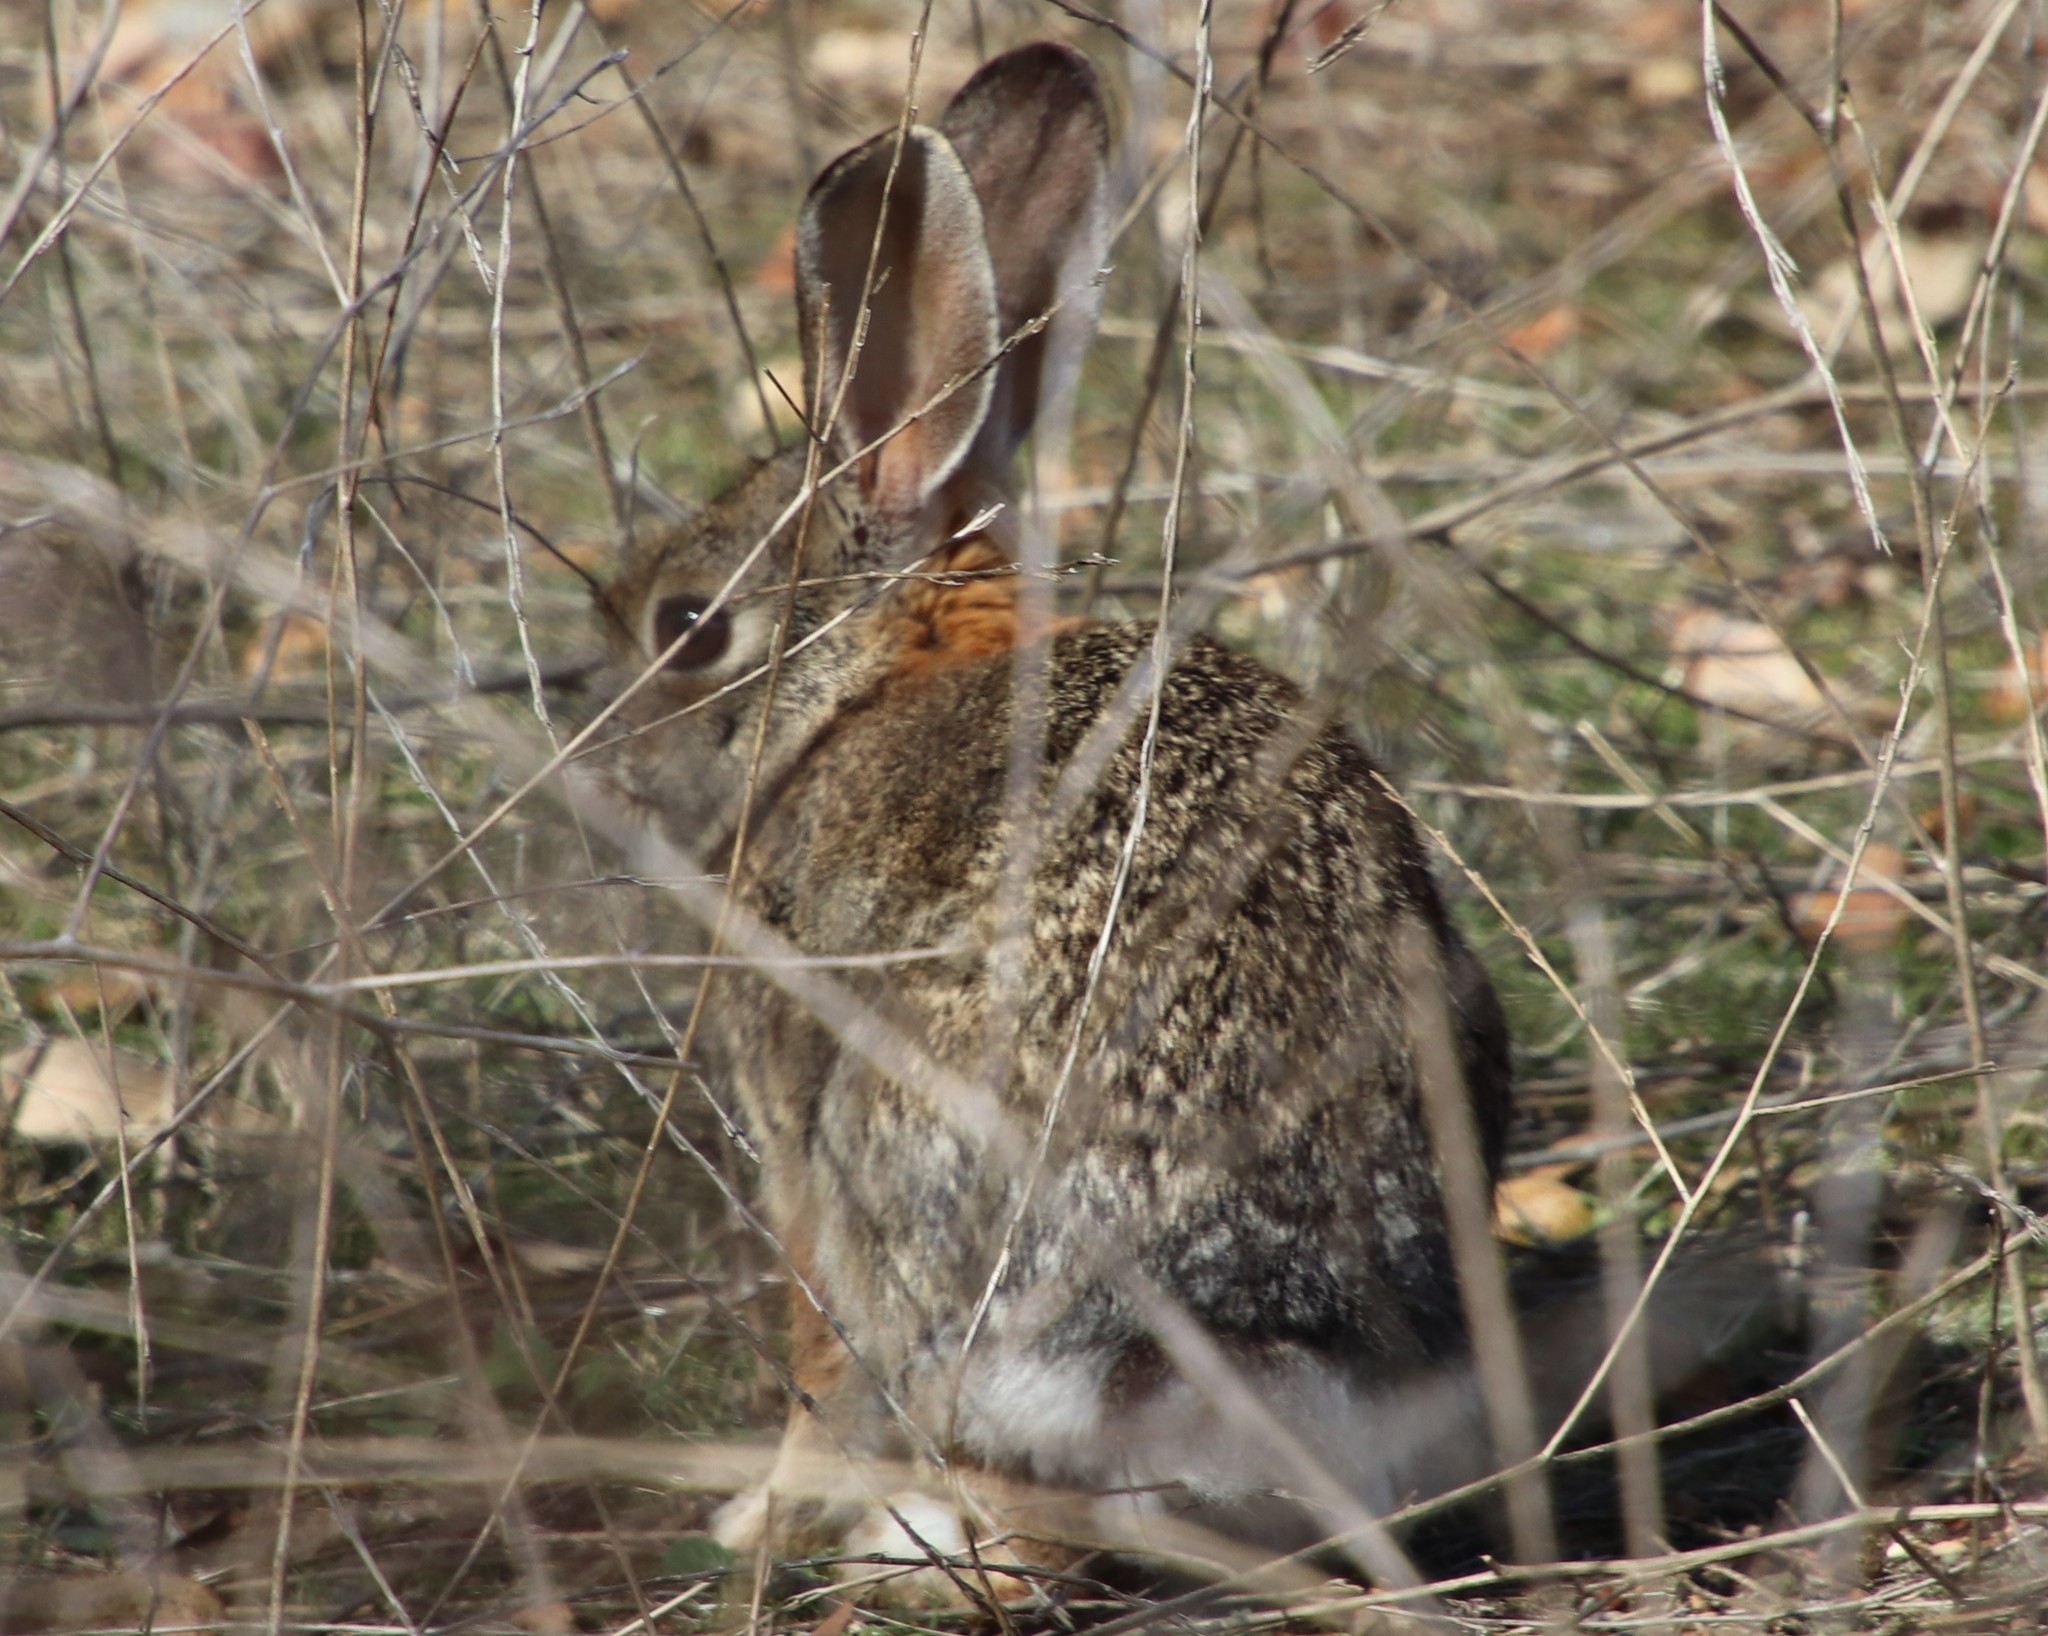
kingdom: Animalia
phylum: Chordata
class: Mammalia
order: Lagomorpha
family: Leporidae
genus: Sylvilagus
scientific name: Sylvilagus audubonii
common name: Desert cottontail
